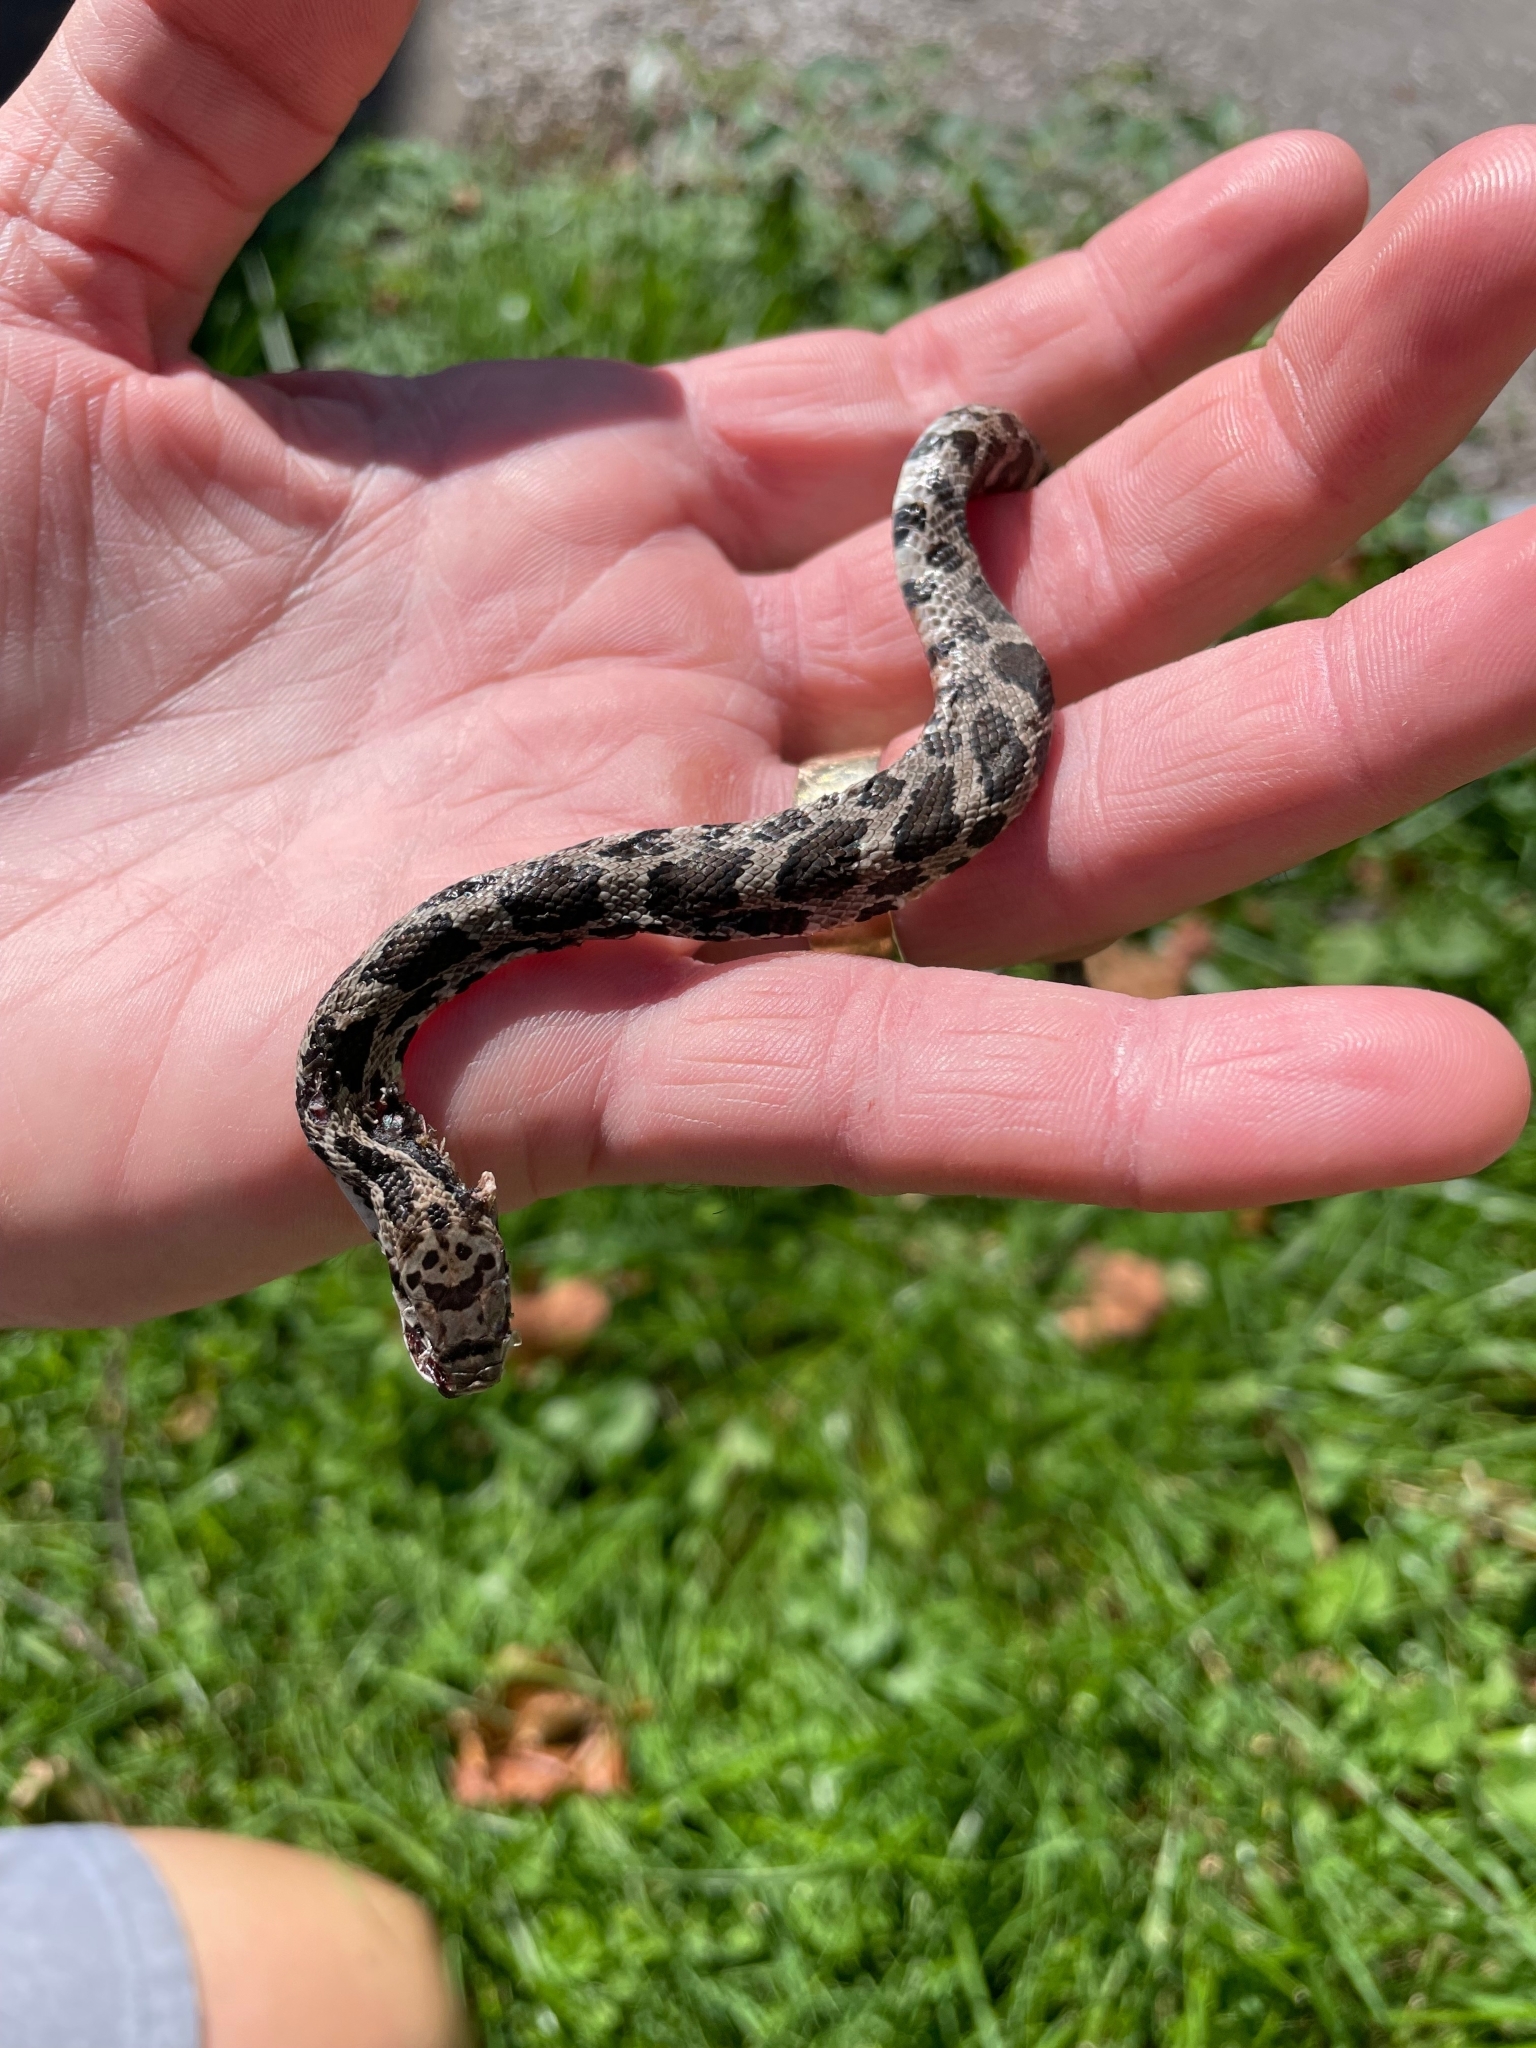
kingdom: Animalia
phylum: Chordata
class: Squamata
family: Colubridae
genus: Pantherophis
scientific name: Pantherophis vulpinus
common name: Eastern fox snake
